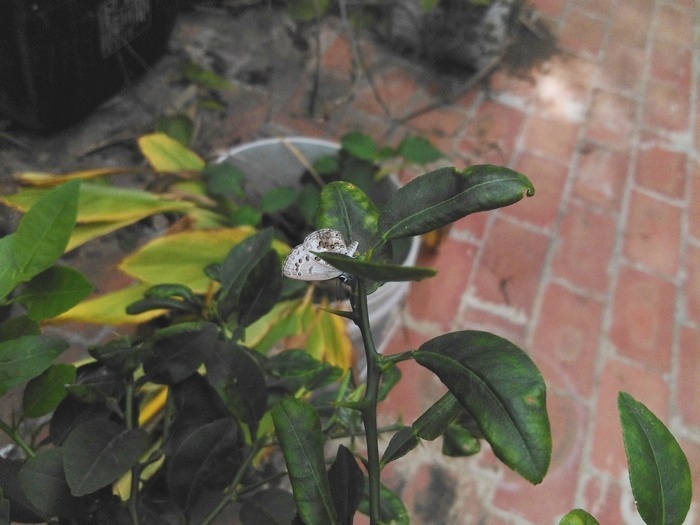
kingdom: Animalia
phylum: Arthropoda
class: Insecta
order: Lepidoptera
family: Lycaenidae
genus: Chilades
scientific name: Chilades laius
